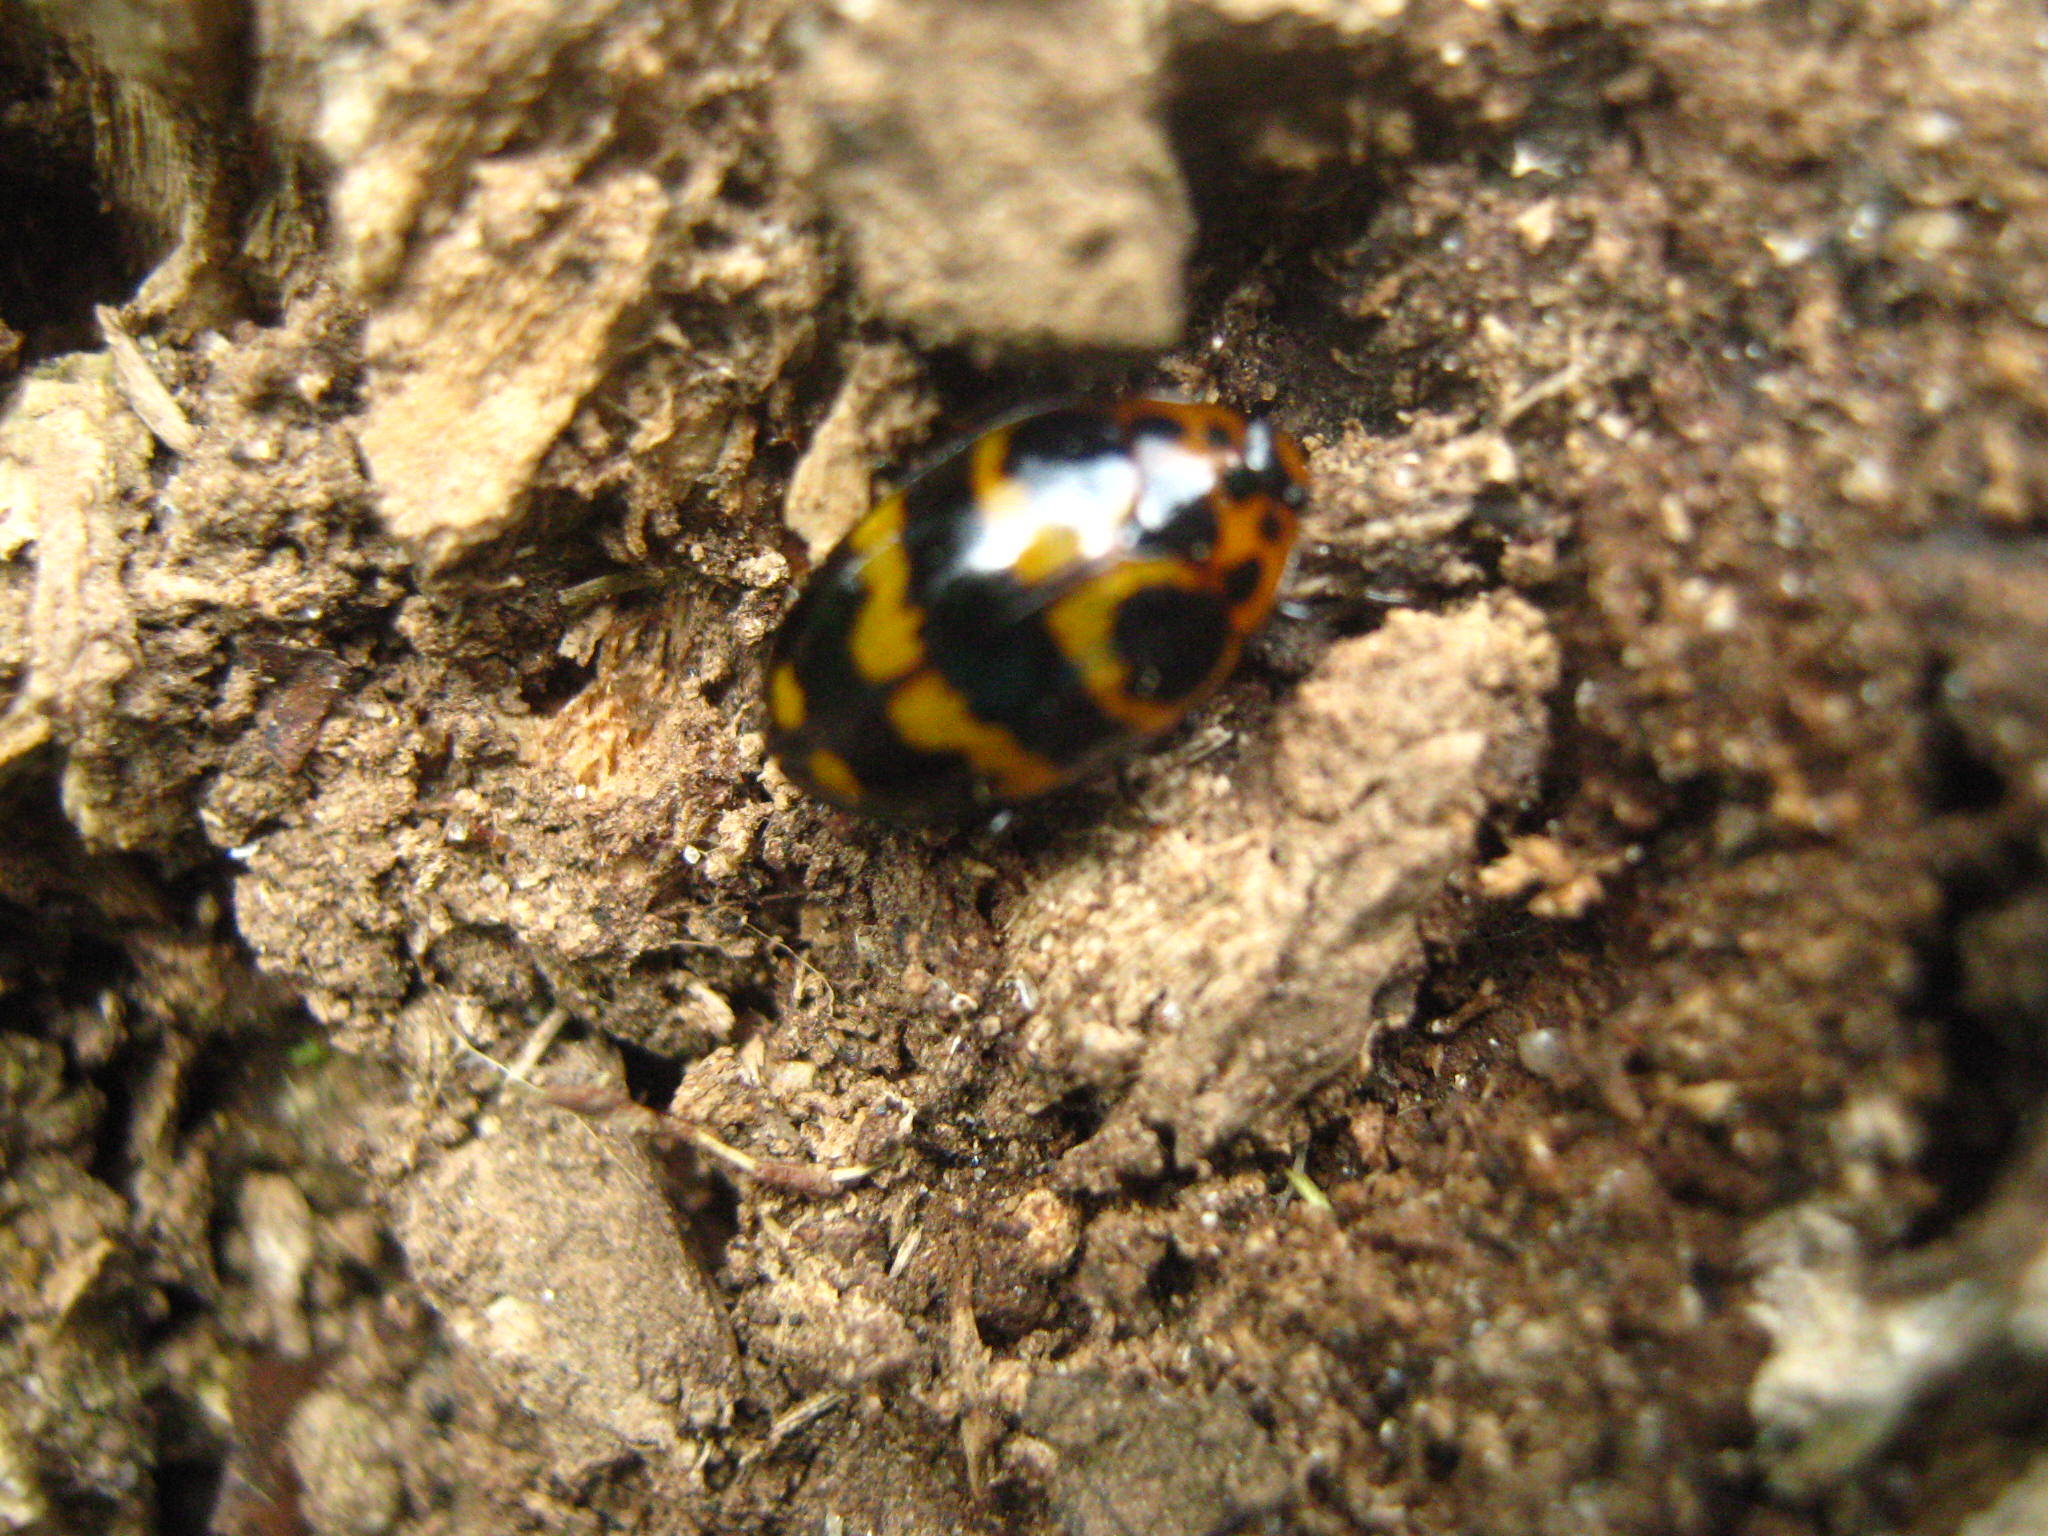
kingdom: Animalia
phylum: Arthropoda
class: Insecta
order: Coleoptera
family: Erotylidae
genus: Prepopharus
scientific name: Prepopharus
